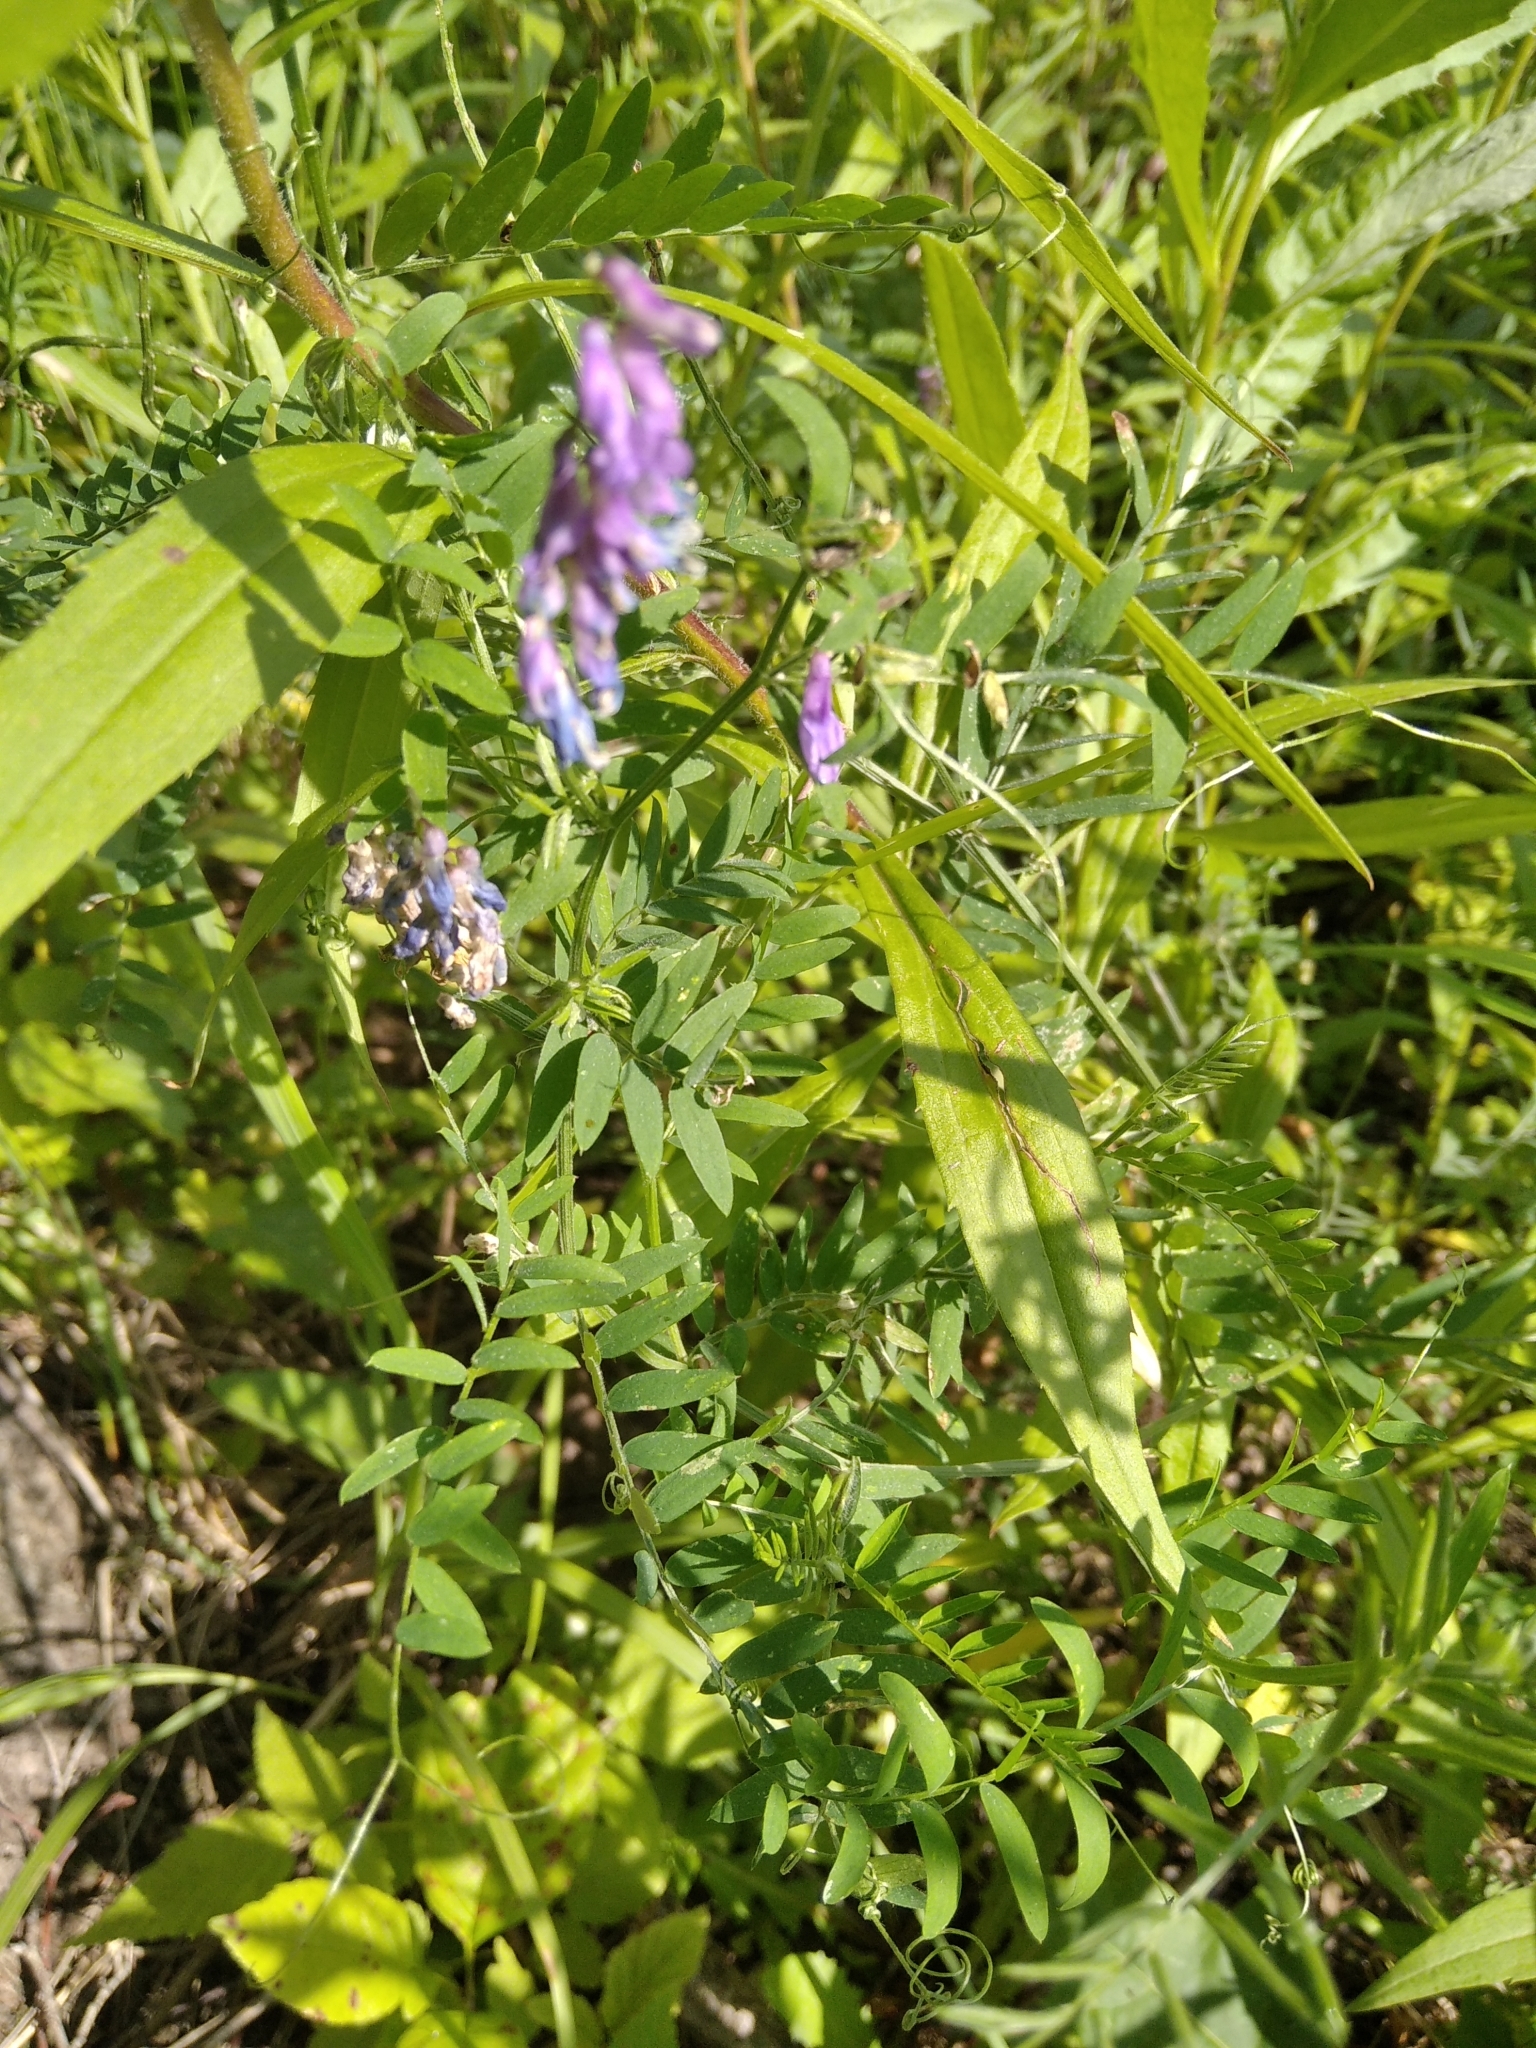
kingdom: Plantae
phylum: Tracheophyta
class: Magnoliopsida
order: Fabales
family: Fabaceae
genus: Vicia
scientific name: Vicia cracca
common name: Bird vetch
